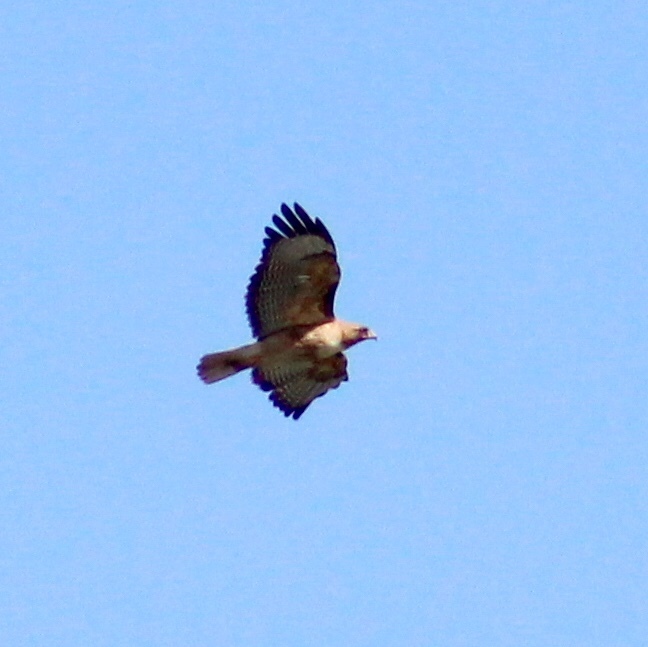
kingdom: Animalia
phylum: Chordata
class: Aves
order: Accipitriformes
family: Accipitridae
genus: Buteo
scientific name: Buteo jamaicensis
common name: Red-tailed hawk
